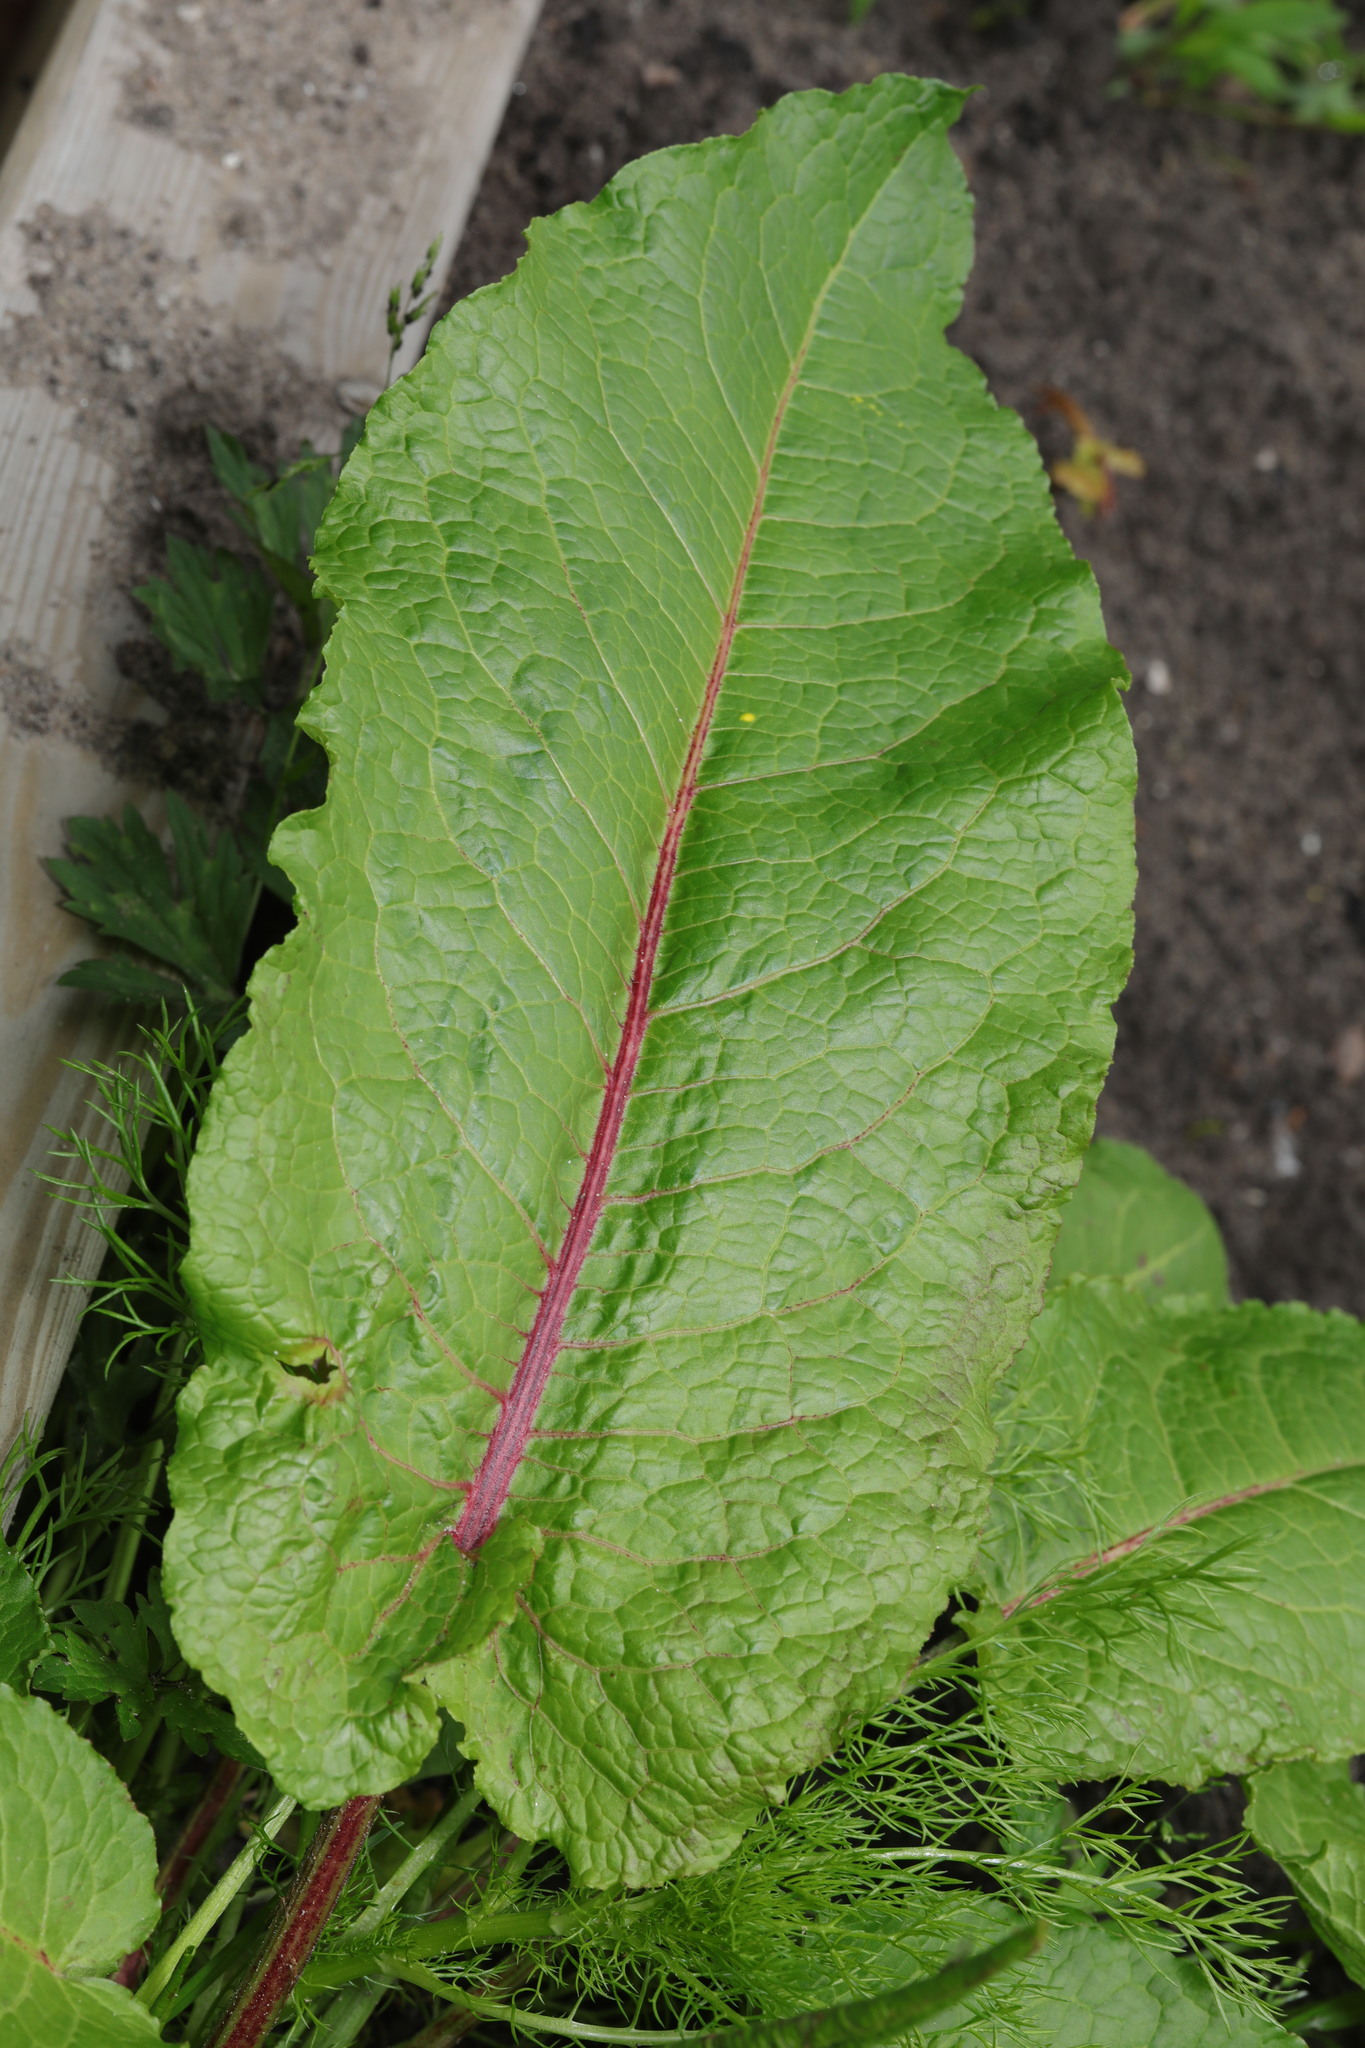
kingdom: Plantae
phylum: Tracheophyta
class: Magnoliopsida
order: Caryophyllales
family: Polygonaceae
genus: Rumex
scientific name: Rumex obtusifolius
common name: Bitter dock
